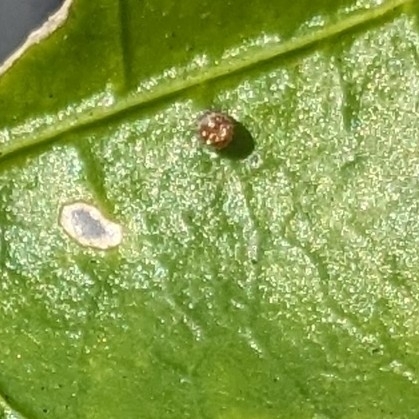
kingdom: Animalia
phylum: Arthropoda
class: Insecta
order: Lepidoptera
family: Nymphalidae
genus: Dione
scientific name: Dione vanillae
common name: Gulf fritillary
